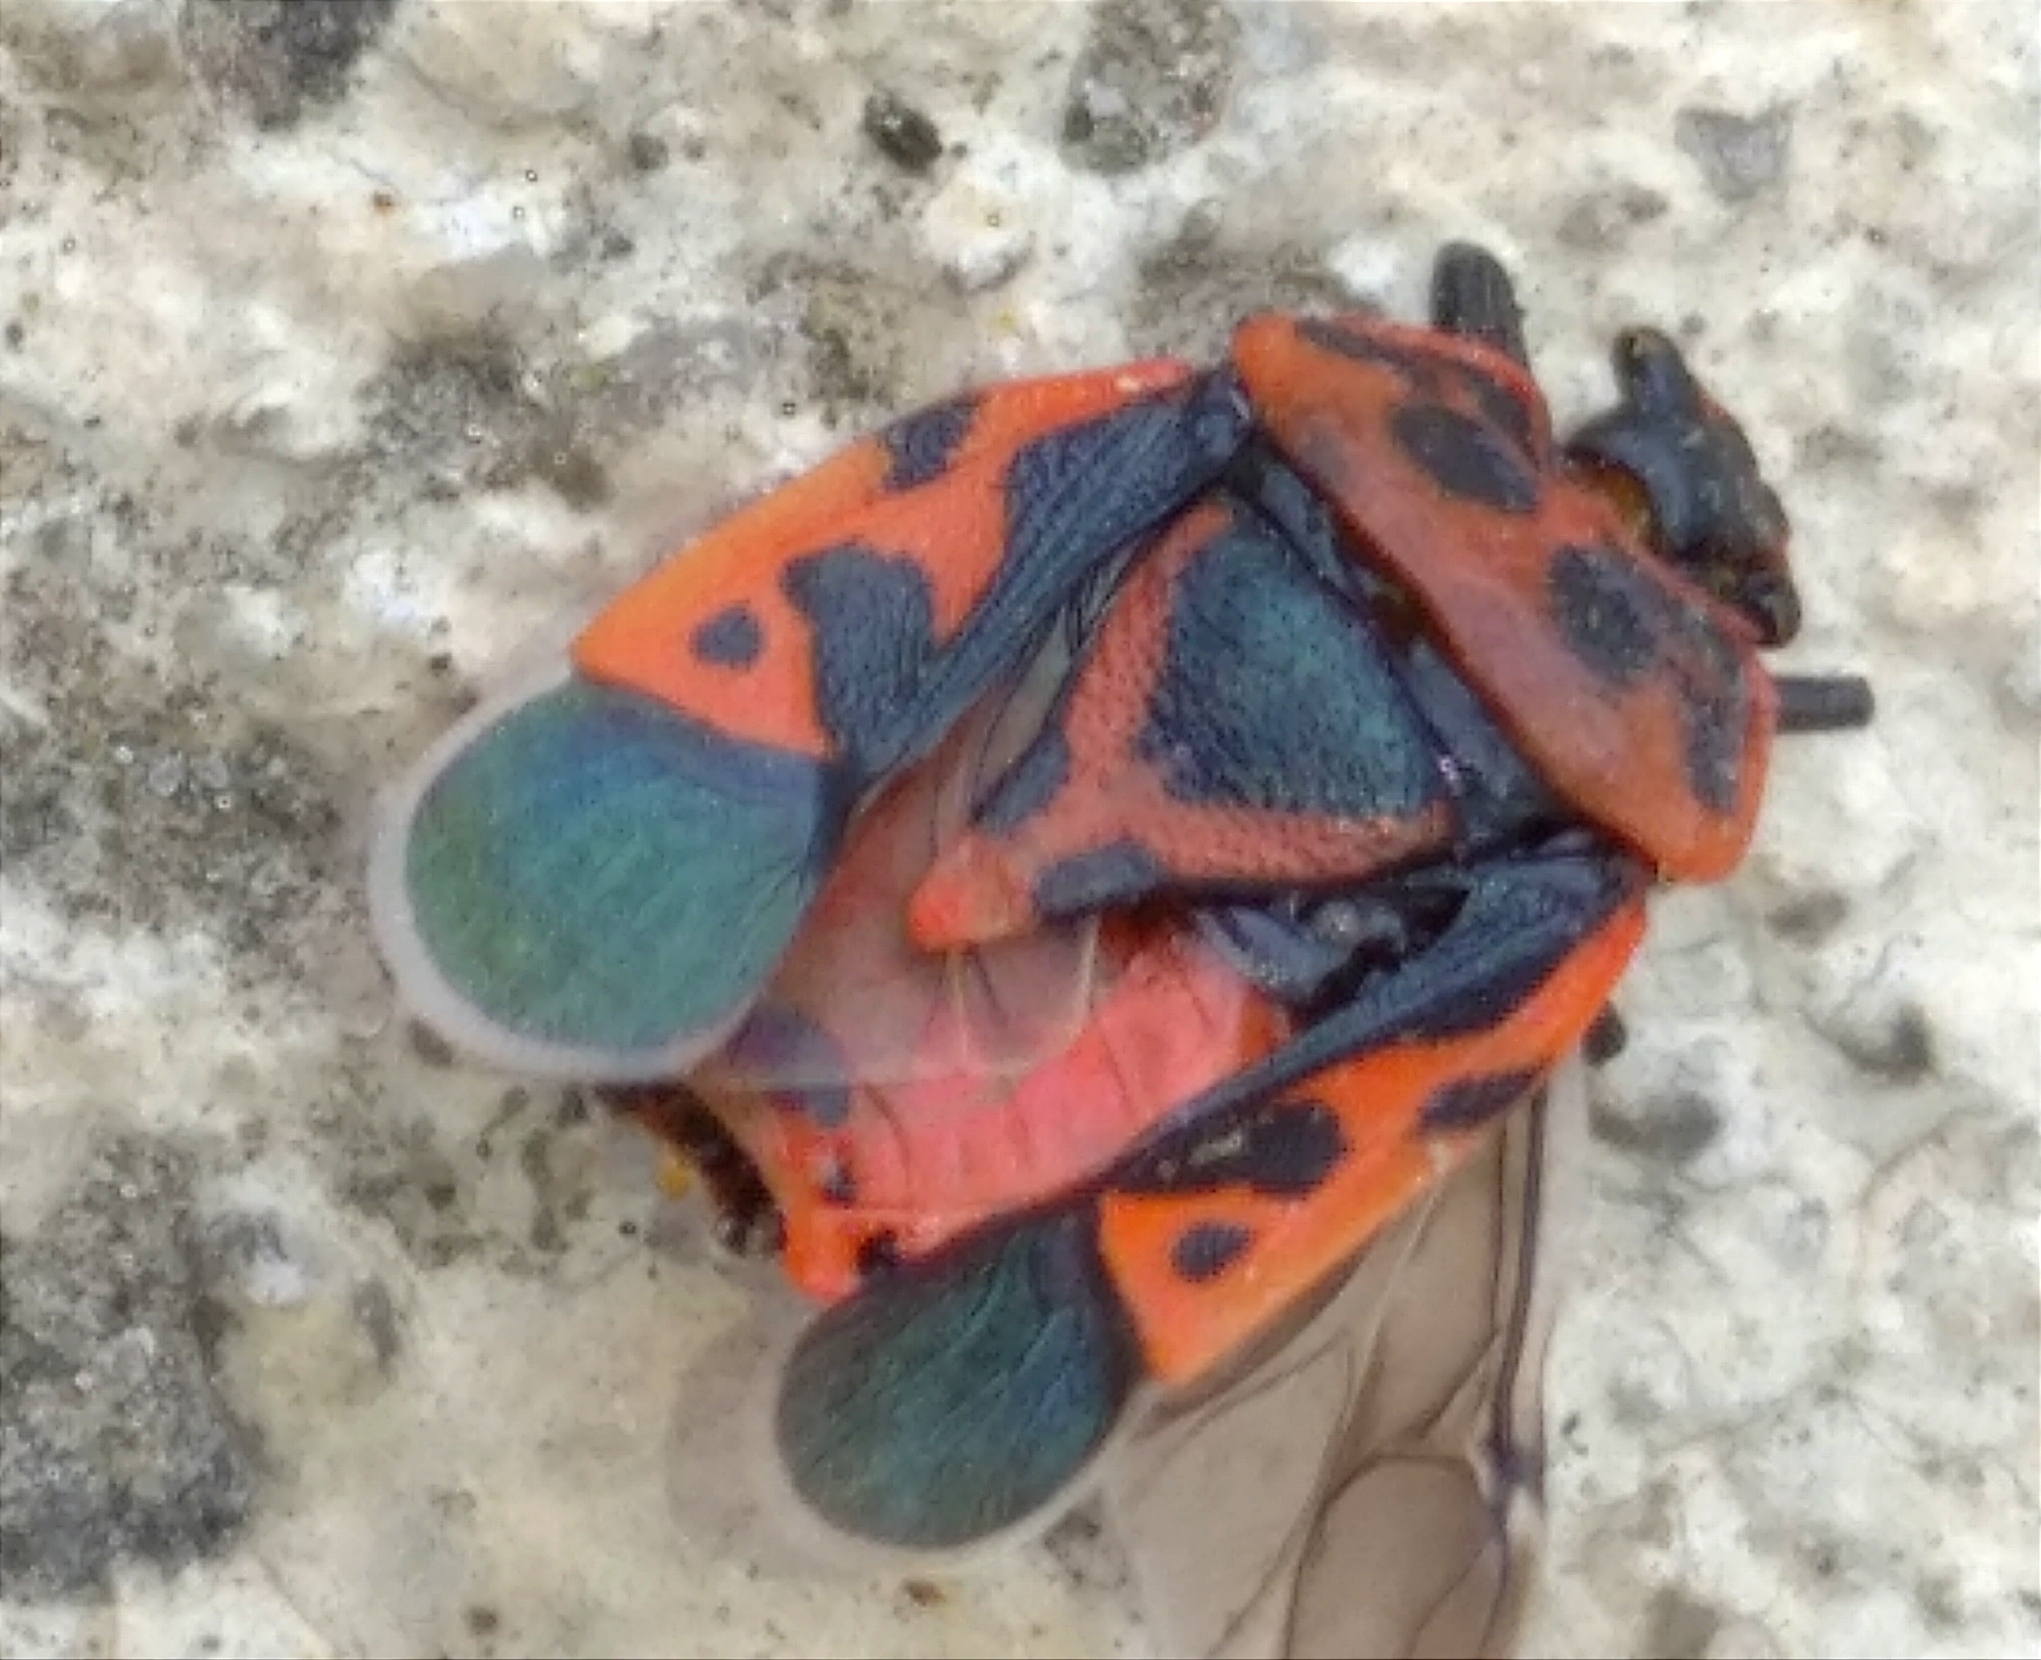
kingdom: Animalia
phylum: Arthropoda
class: Insecta
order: Hemiptera
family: Pentatomidae
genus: Eurydema
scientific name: Eurydema ventralis
